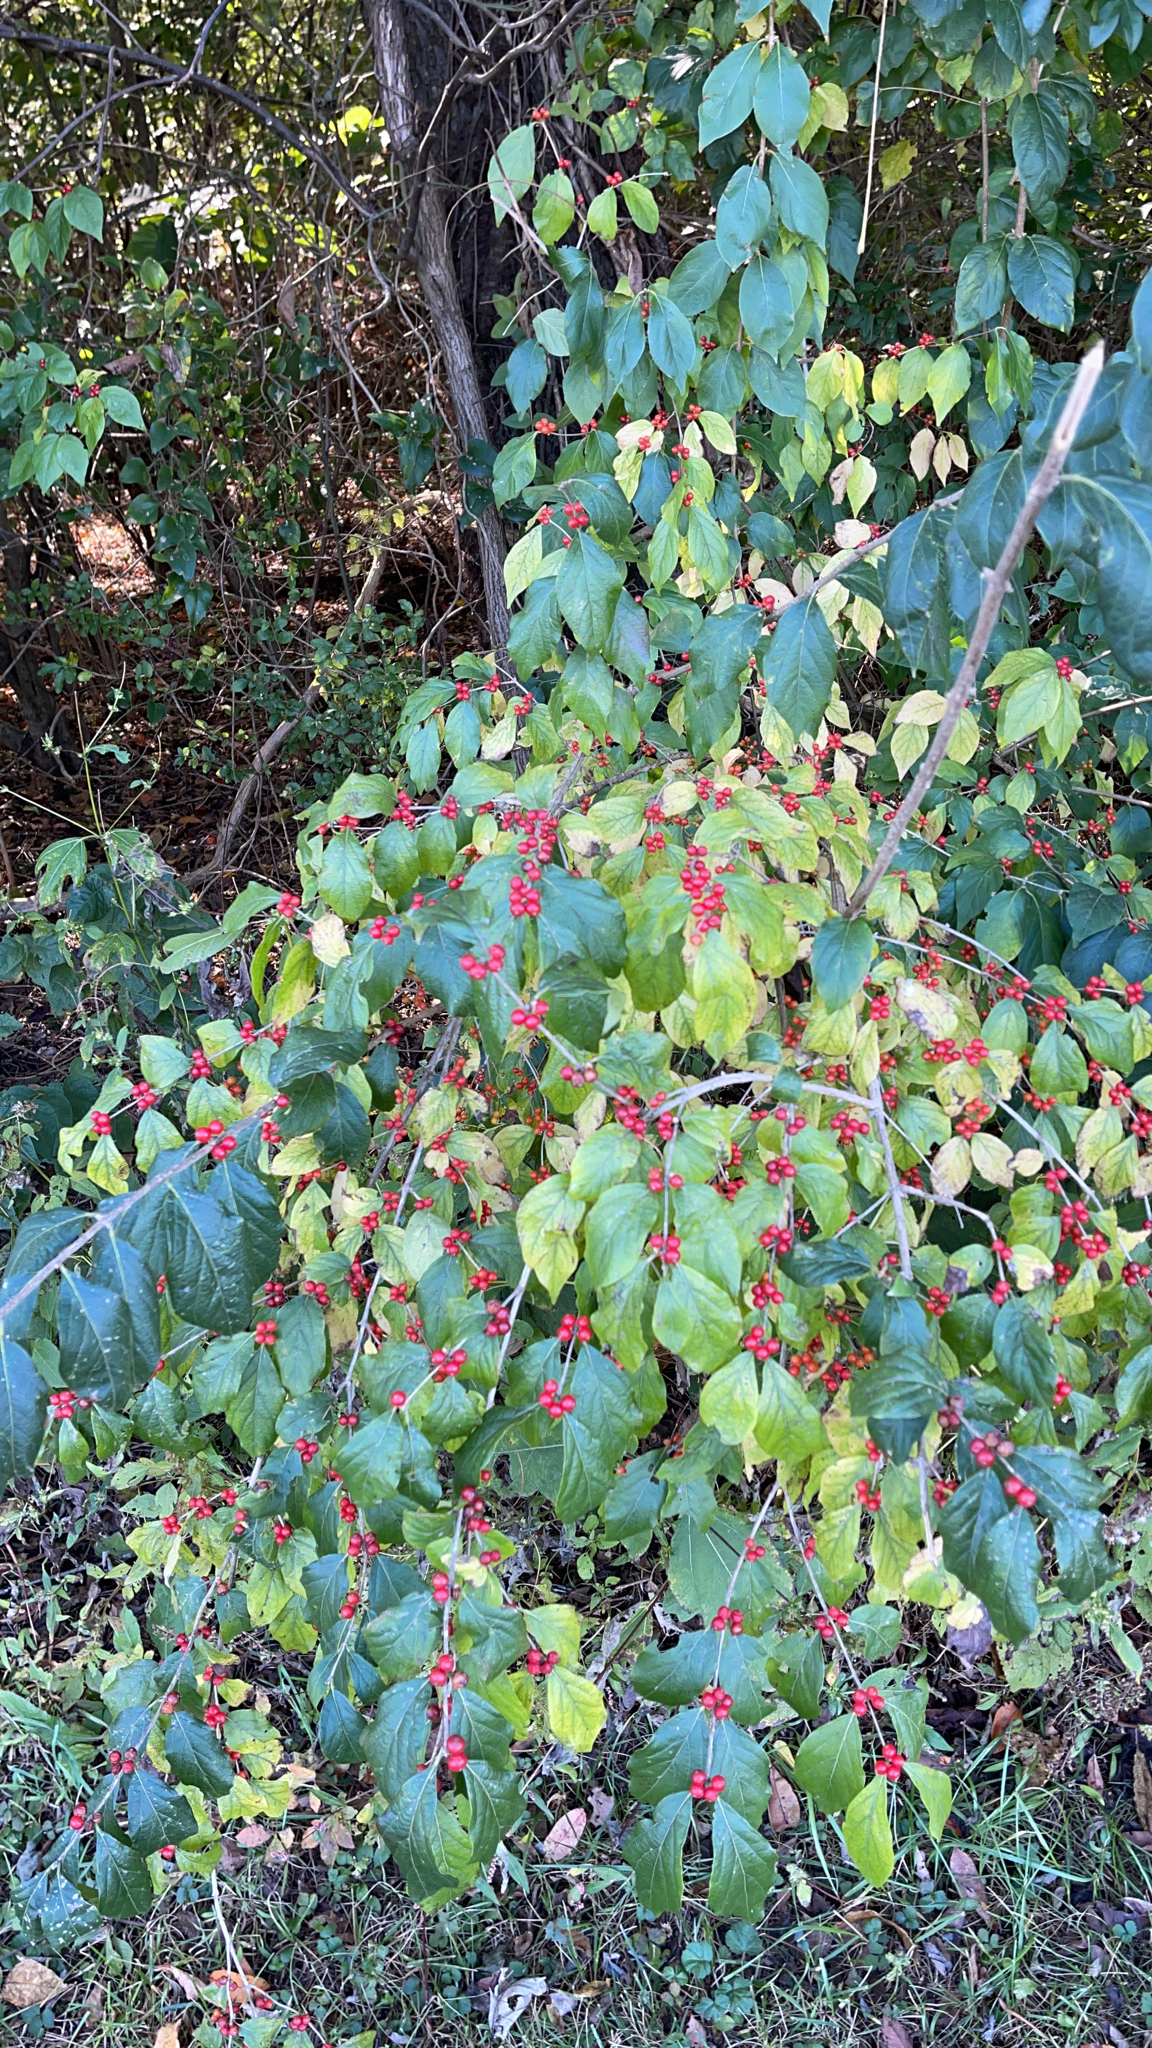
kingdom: Plantae
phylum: Tracheophyta
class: Magnoliopsida
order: Dipsacales
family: Caprifoliaceae
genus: Lonicera
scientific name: Lonicera maackii
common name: Amur honeysuckle
